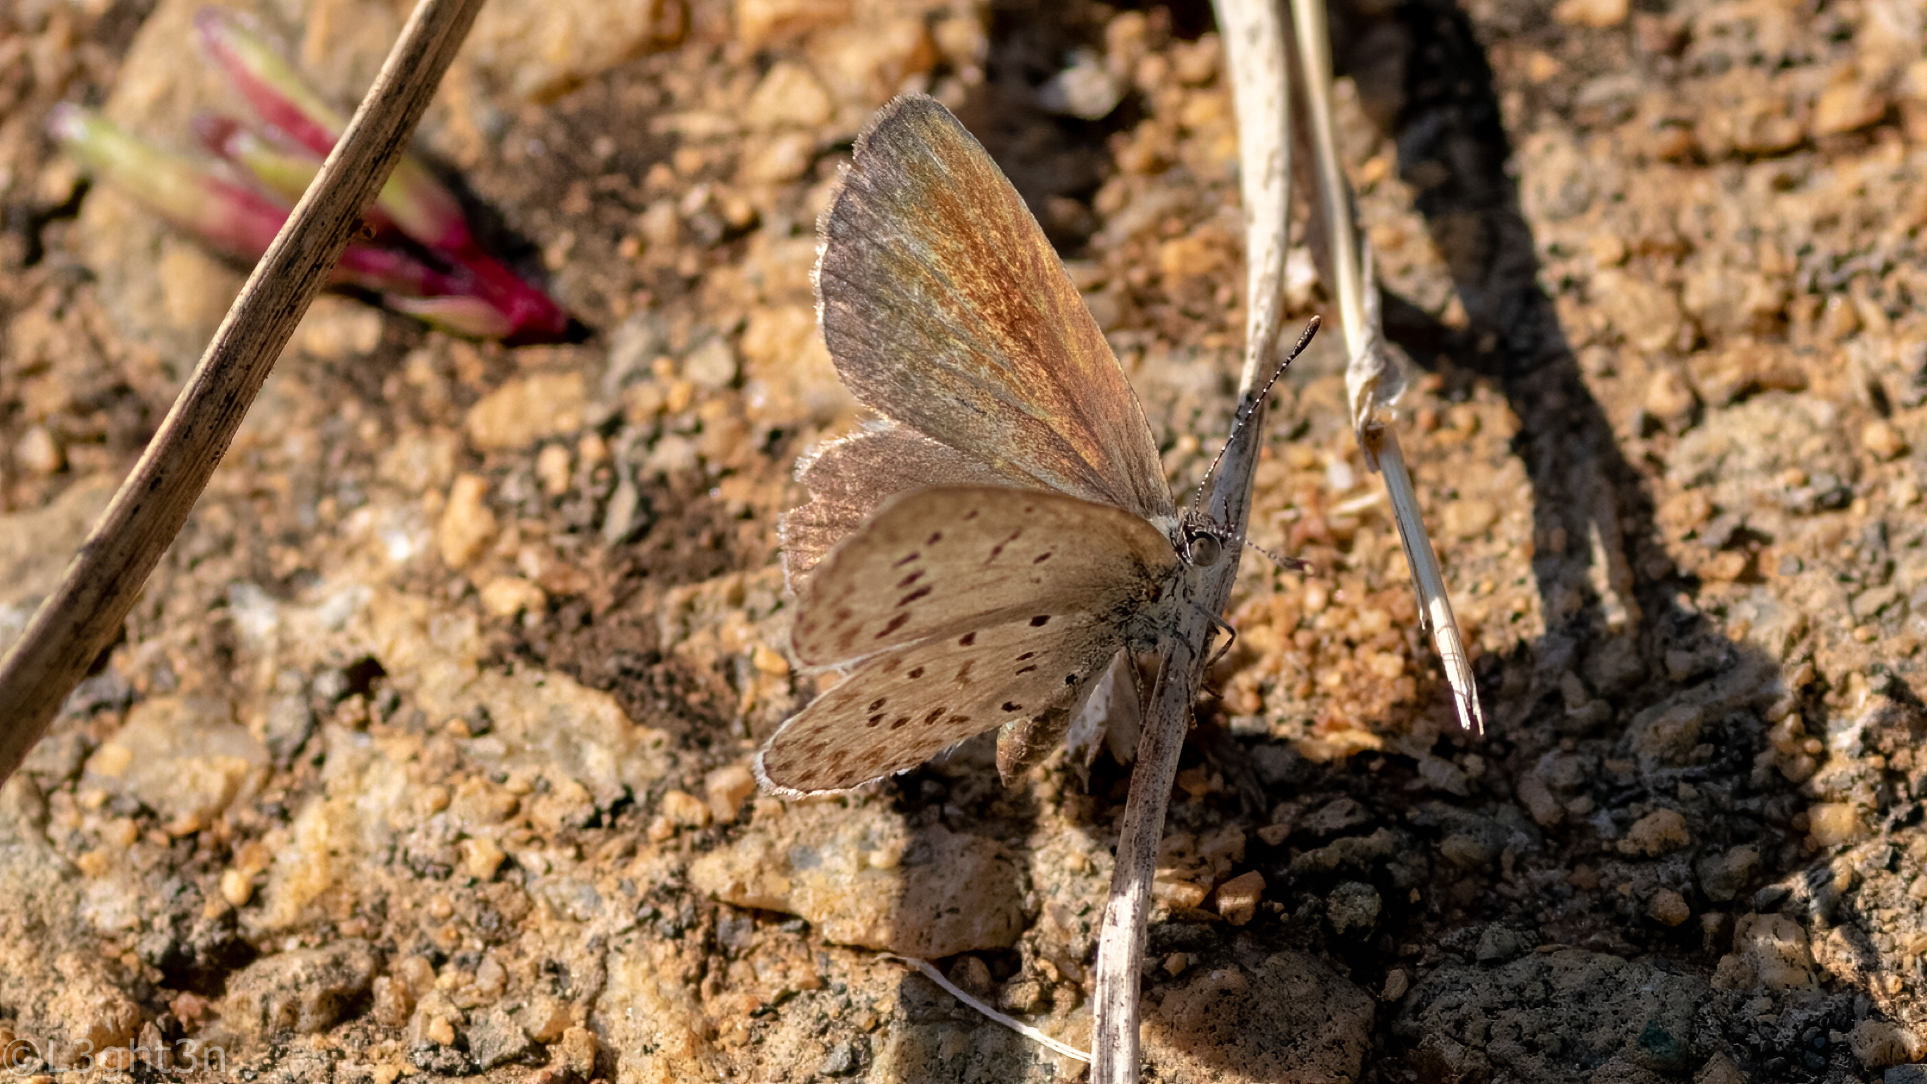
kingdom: Animalia
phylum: Arthropoda
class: Insecta
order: Lepidoptera
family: Lycaenidae
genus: Zizeeria
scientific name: Zizeeria knysna
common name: African grass blue
